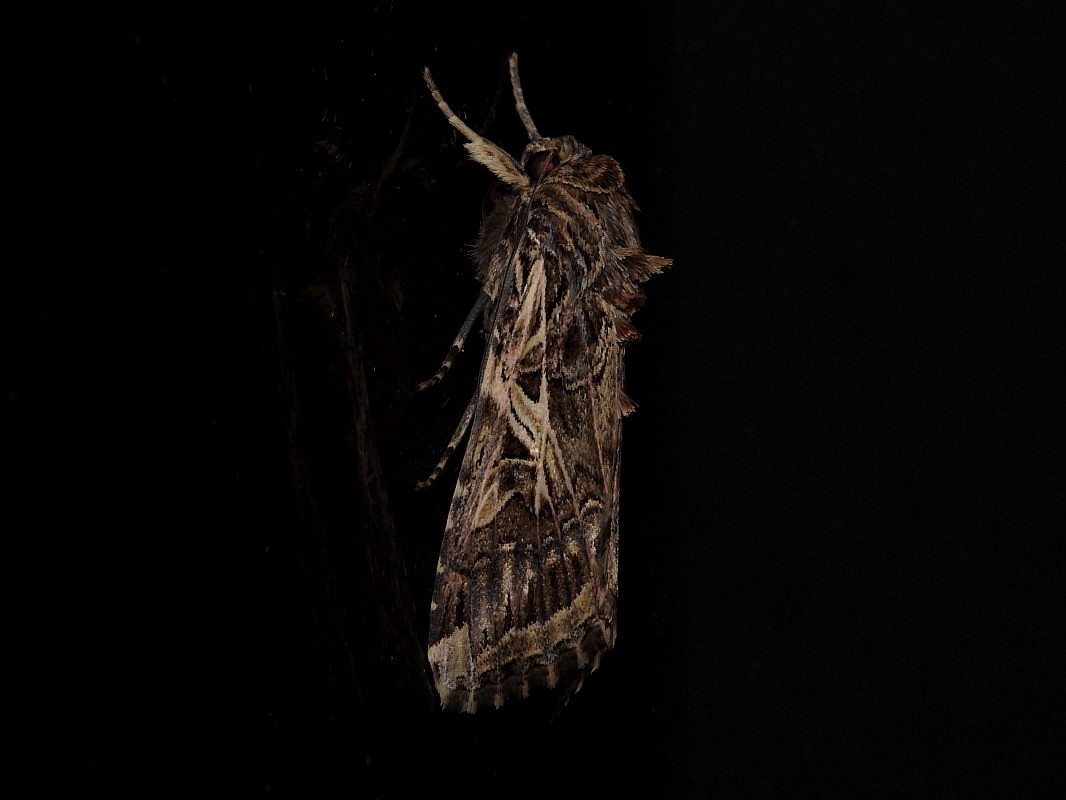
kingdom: Animalia
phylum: Arthropoda
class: Insecta
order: Lepidoptera
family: Noctuidae
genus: Spodoptera
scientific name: Spodoptera litura
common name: Asian cotton leafworm
